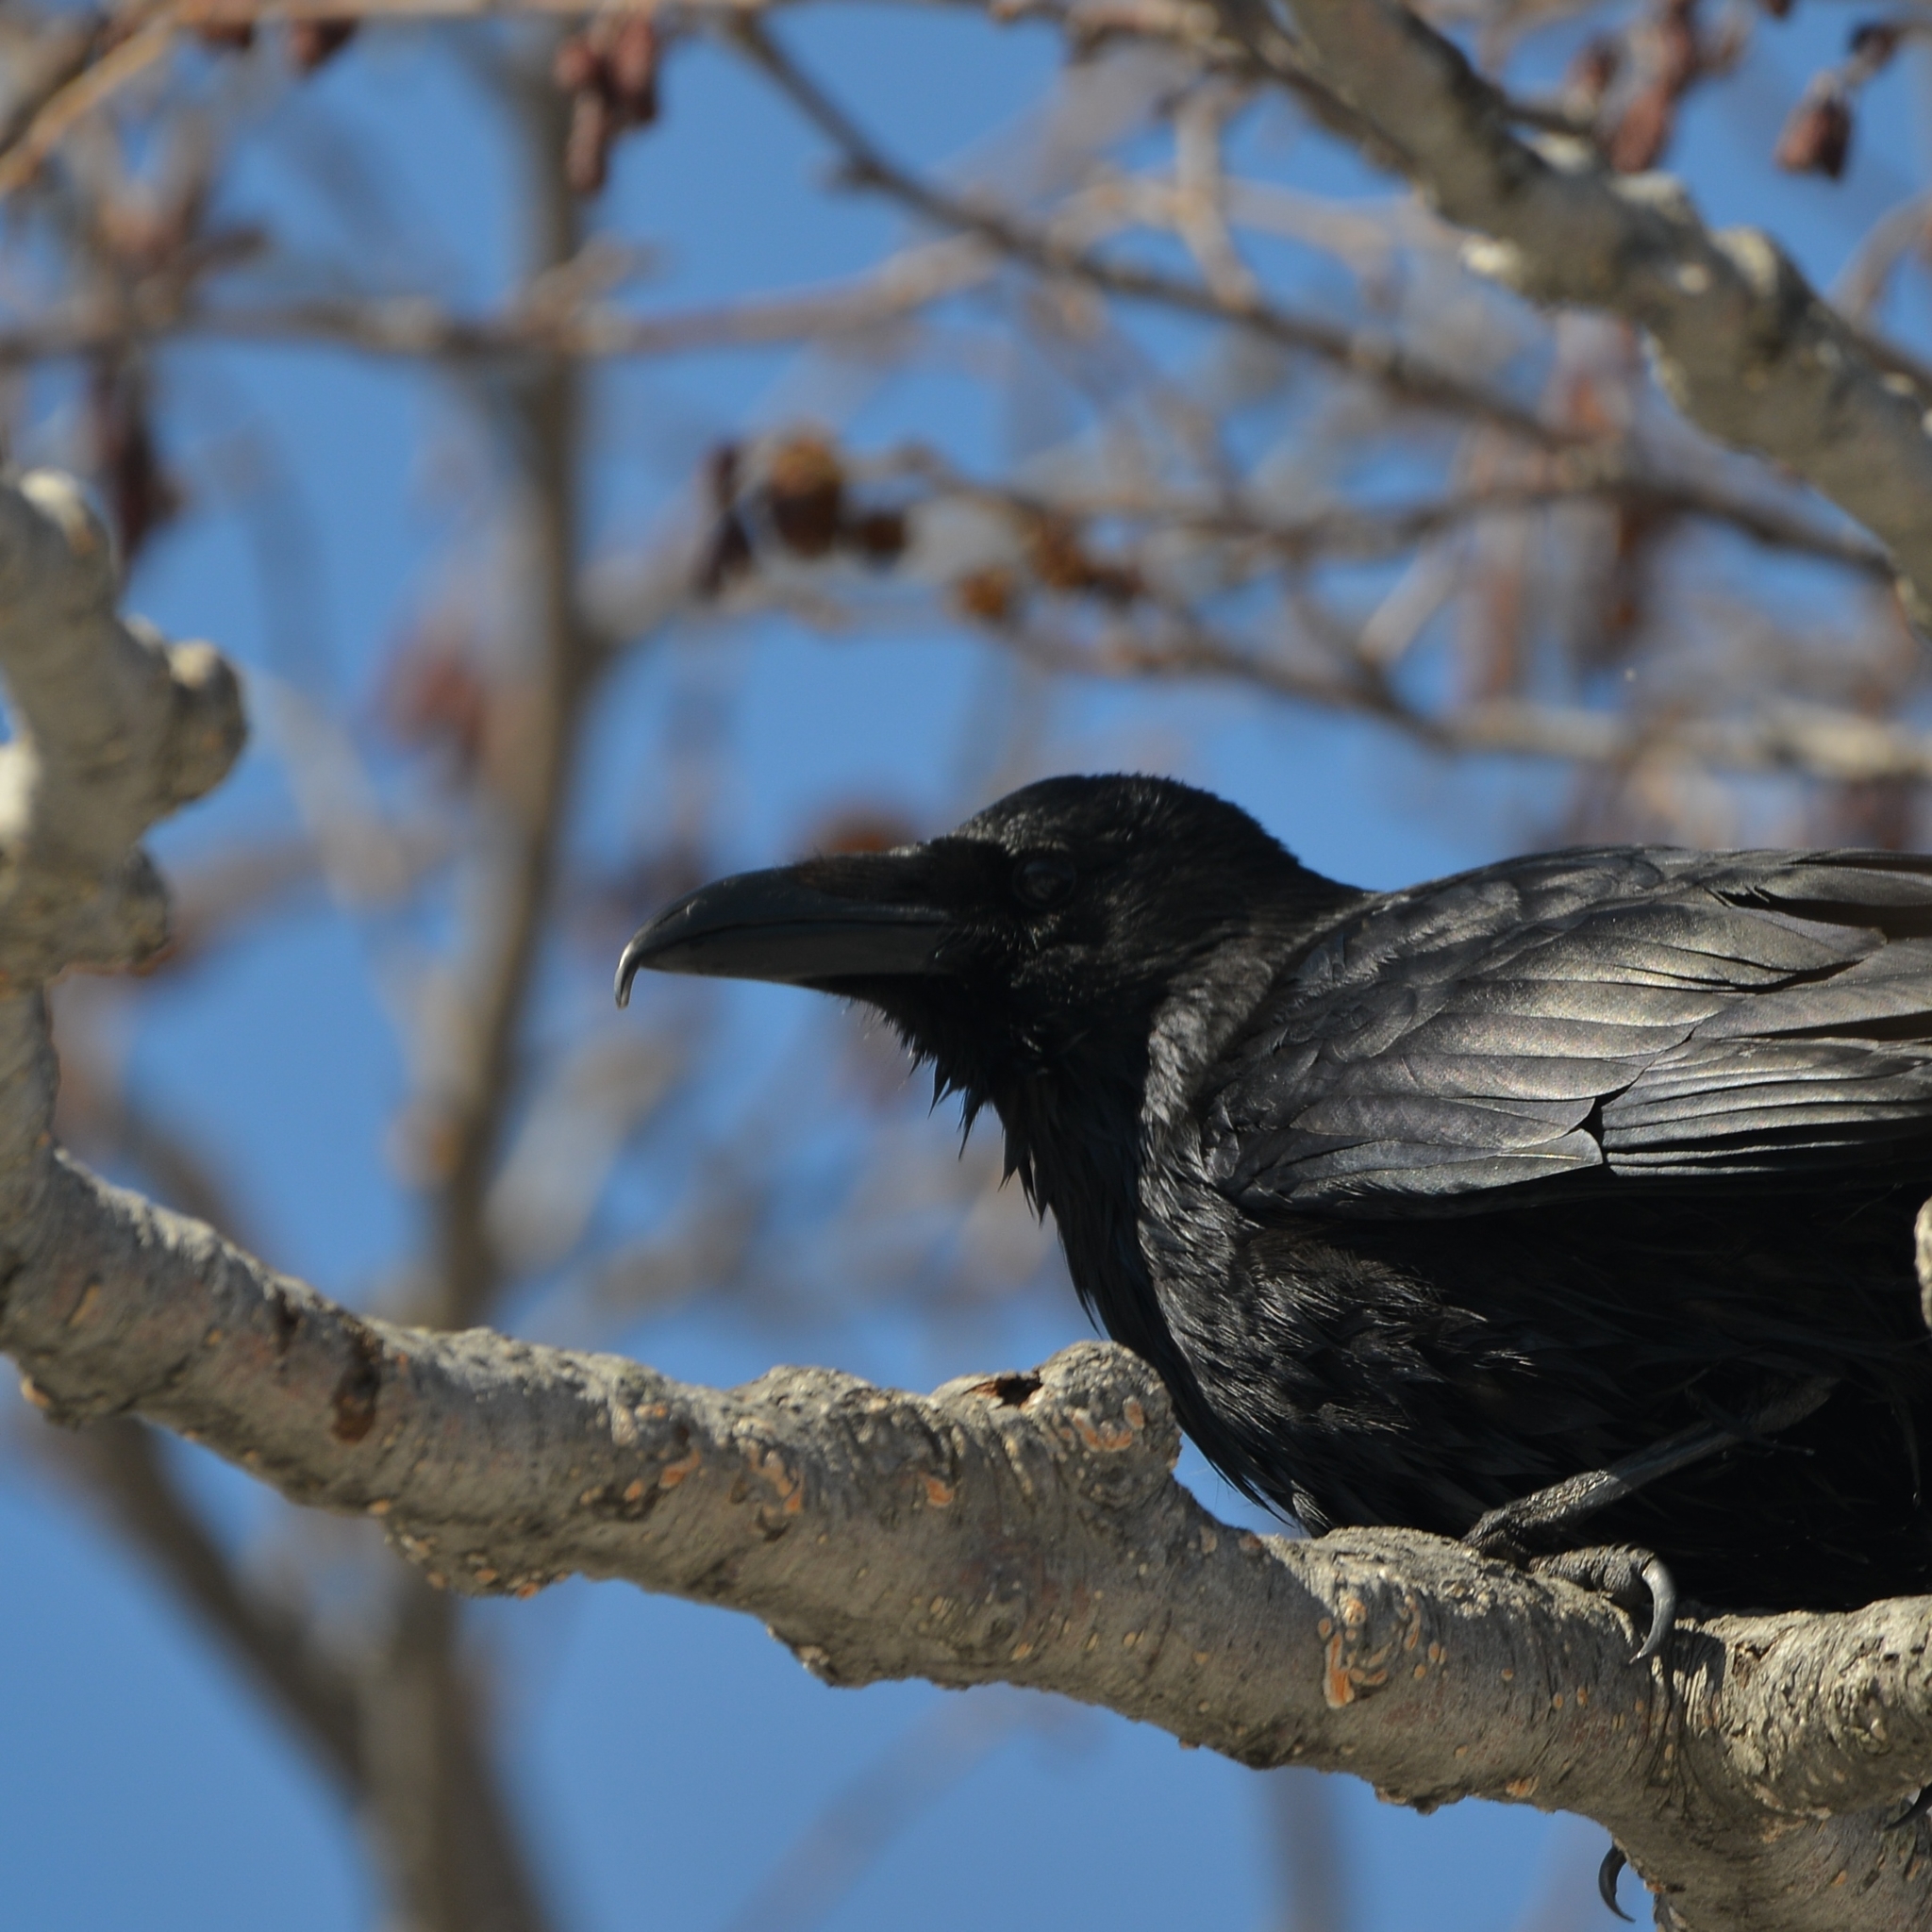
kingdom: Animalia
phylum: Chordata
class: Aves
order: Passeriformes
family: Corvidae
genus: Corvus
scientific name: Corvus corone
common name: Carrion crow
